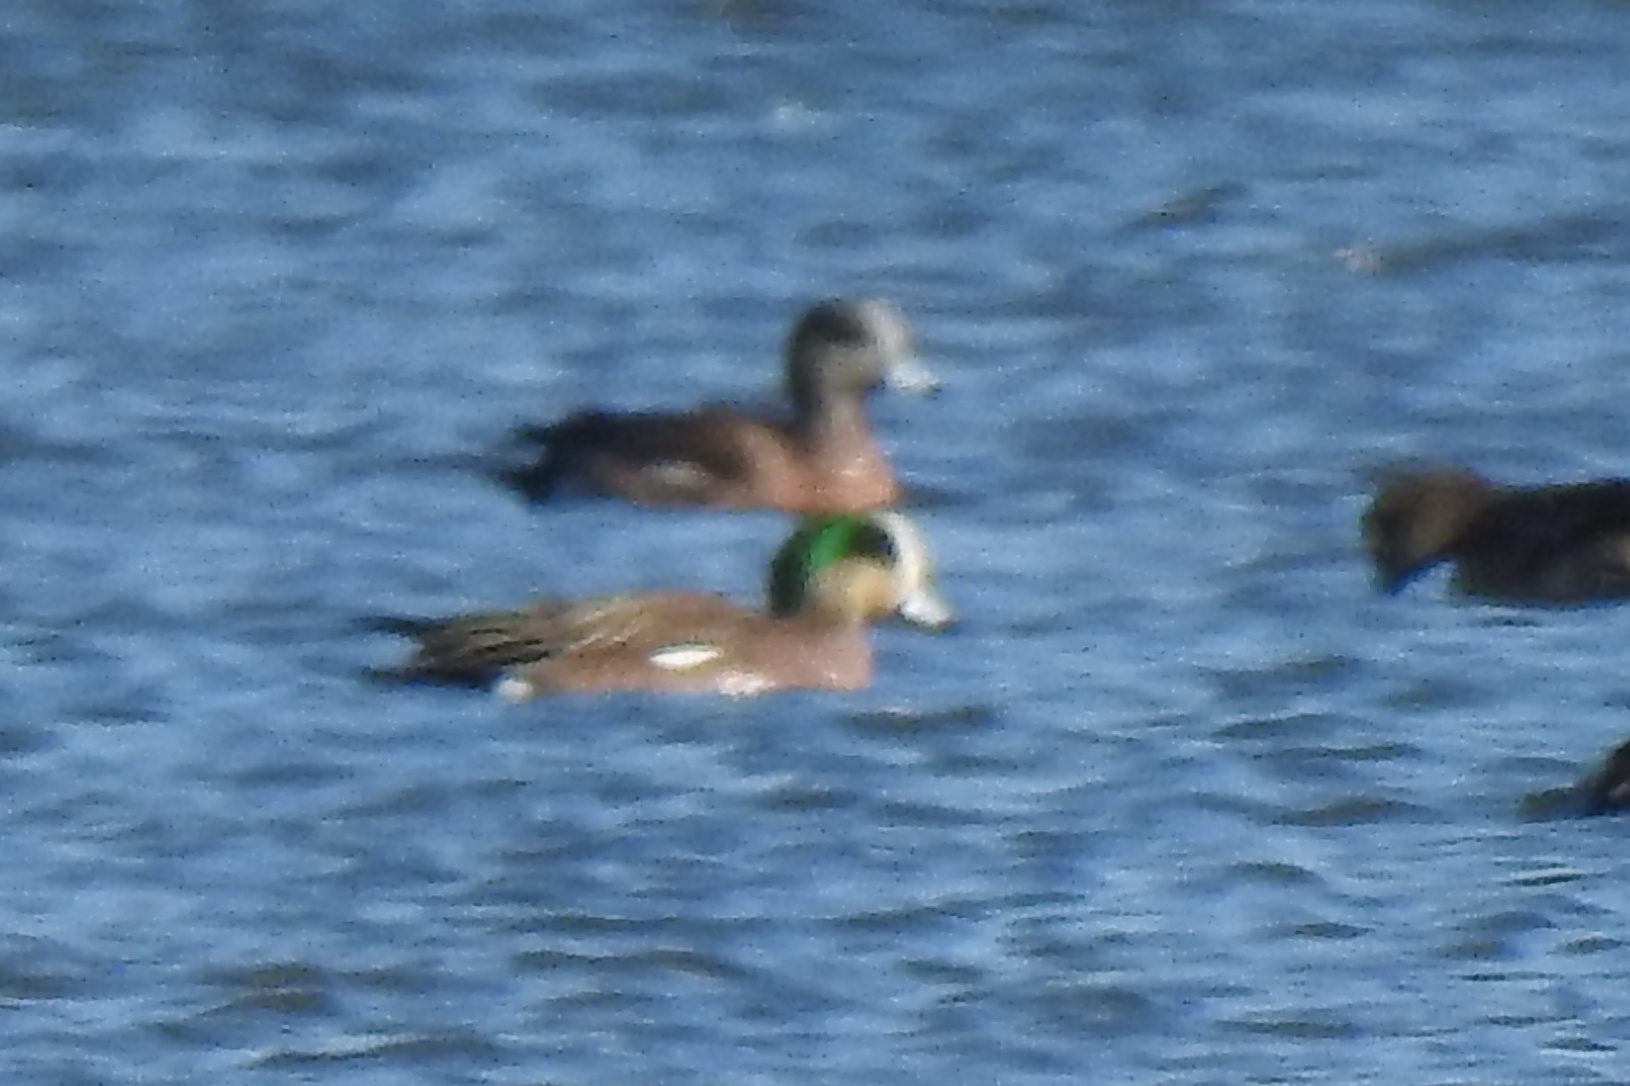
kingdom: Animalia
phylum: Chordata
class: Aves
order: Anseriformes
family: Anatidae
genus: Mareca
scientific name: Mareca americana
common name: American wigeon
